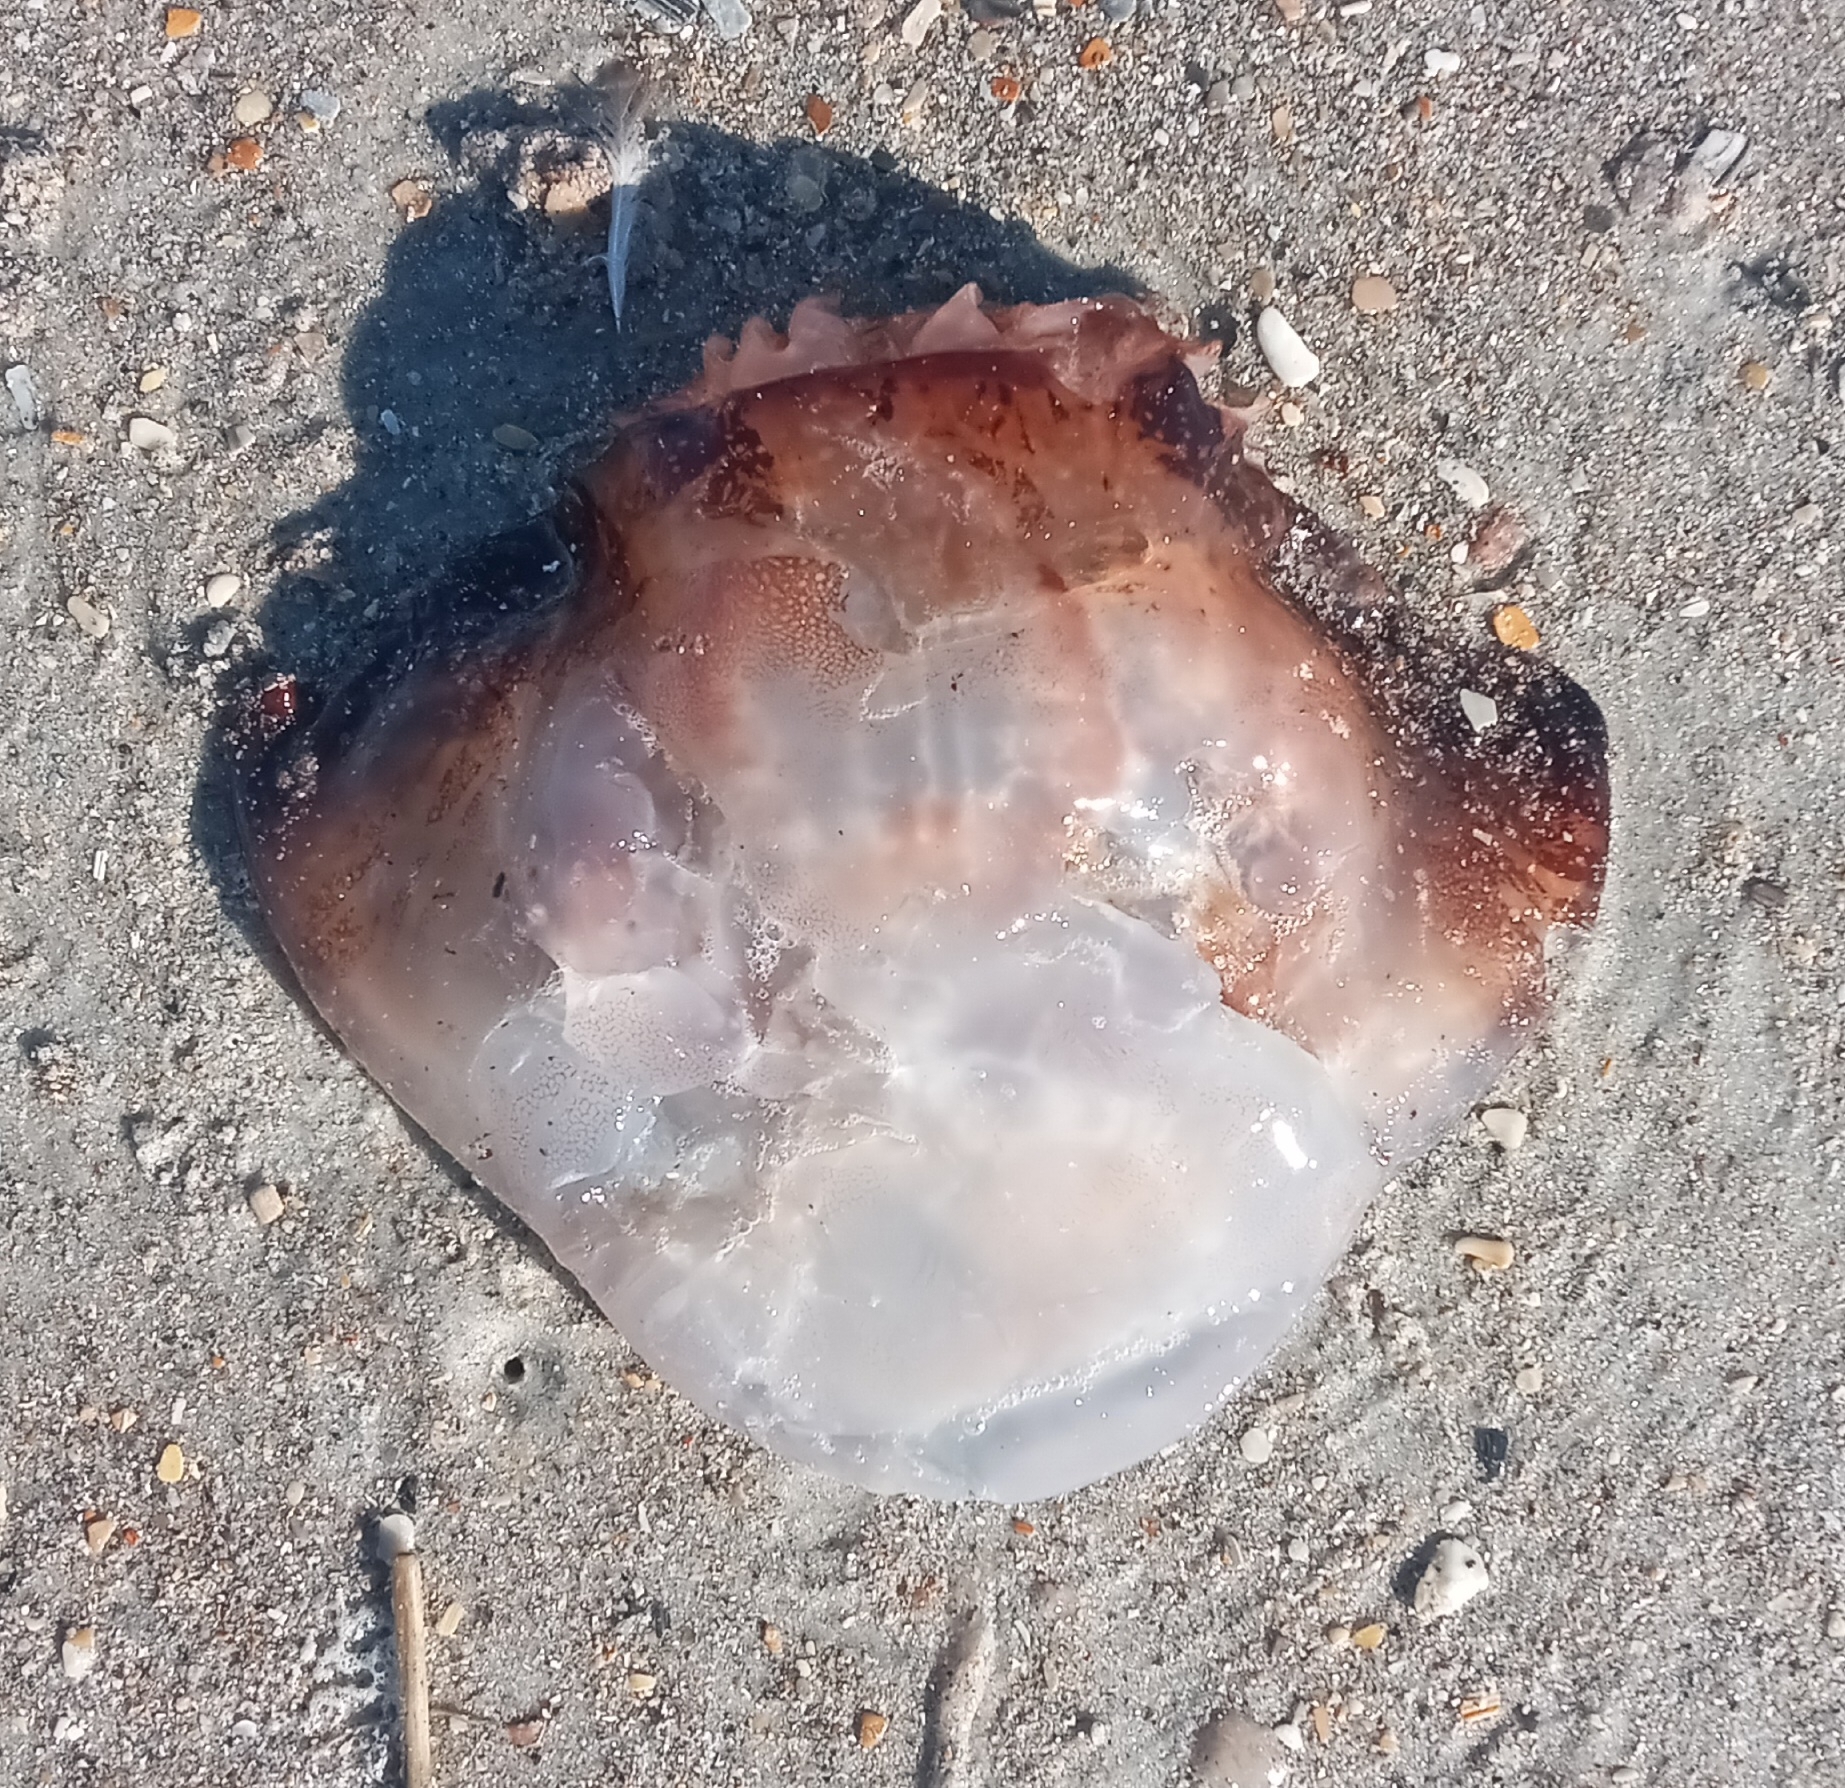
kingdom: Animalia
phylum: Cnidaria
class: Scyphozoa
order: Rhizostomeae
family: Stomolophidae
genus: Stomolophus
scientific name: Stomolophus meleagris
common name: Cabbagehead
